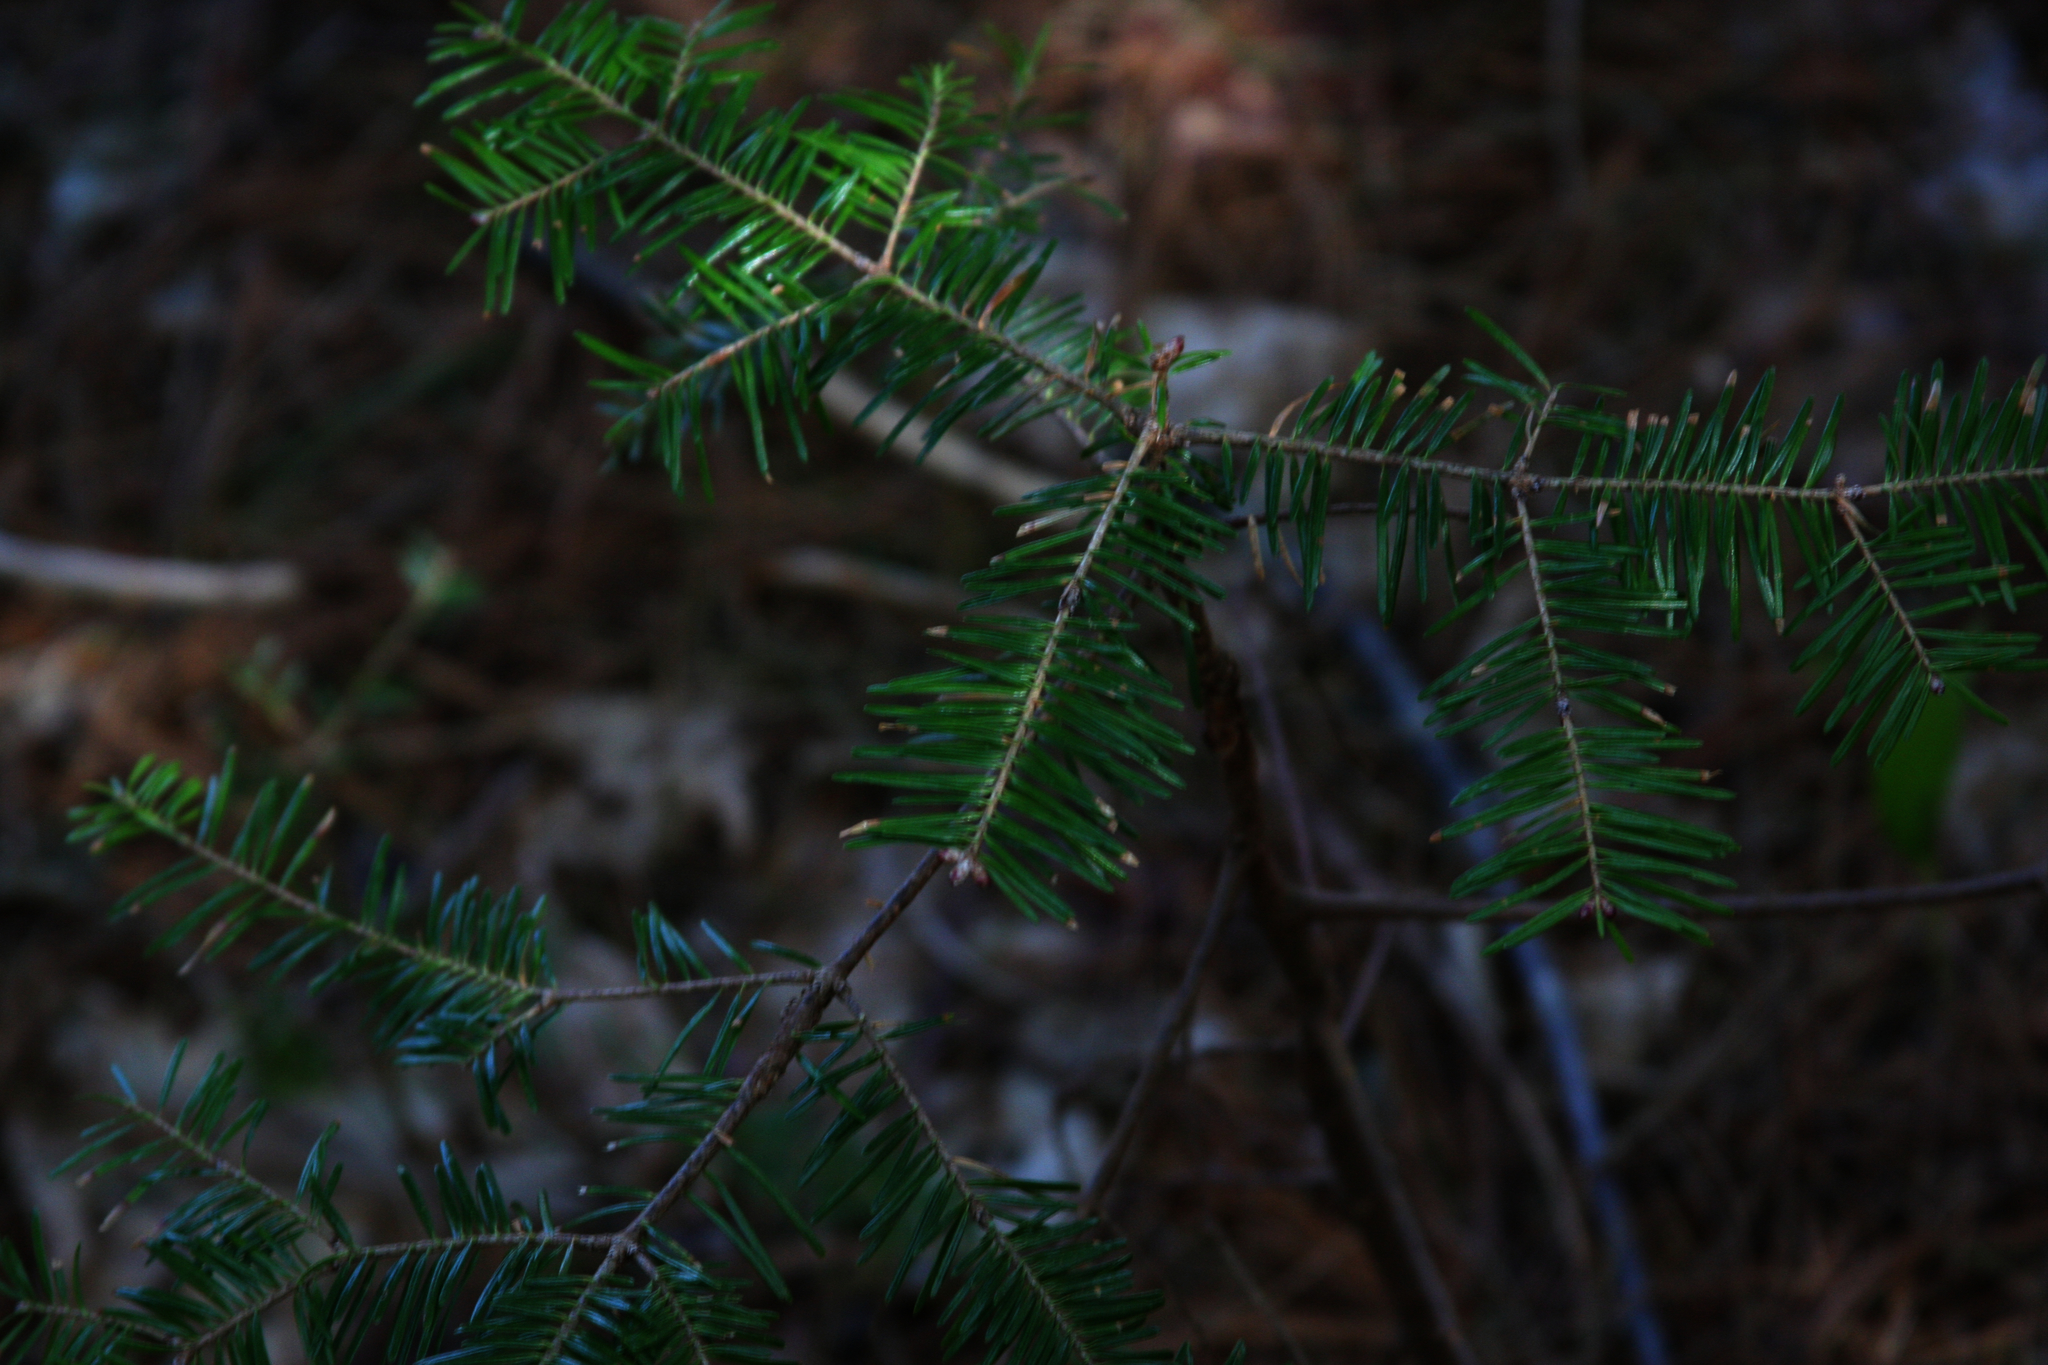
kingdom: Plantae
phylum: Tracheophyta
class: Pinopsida
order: Pinales
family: Pinaceae
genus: Abies
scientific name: Abies balsamea
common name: Balsam fir
